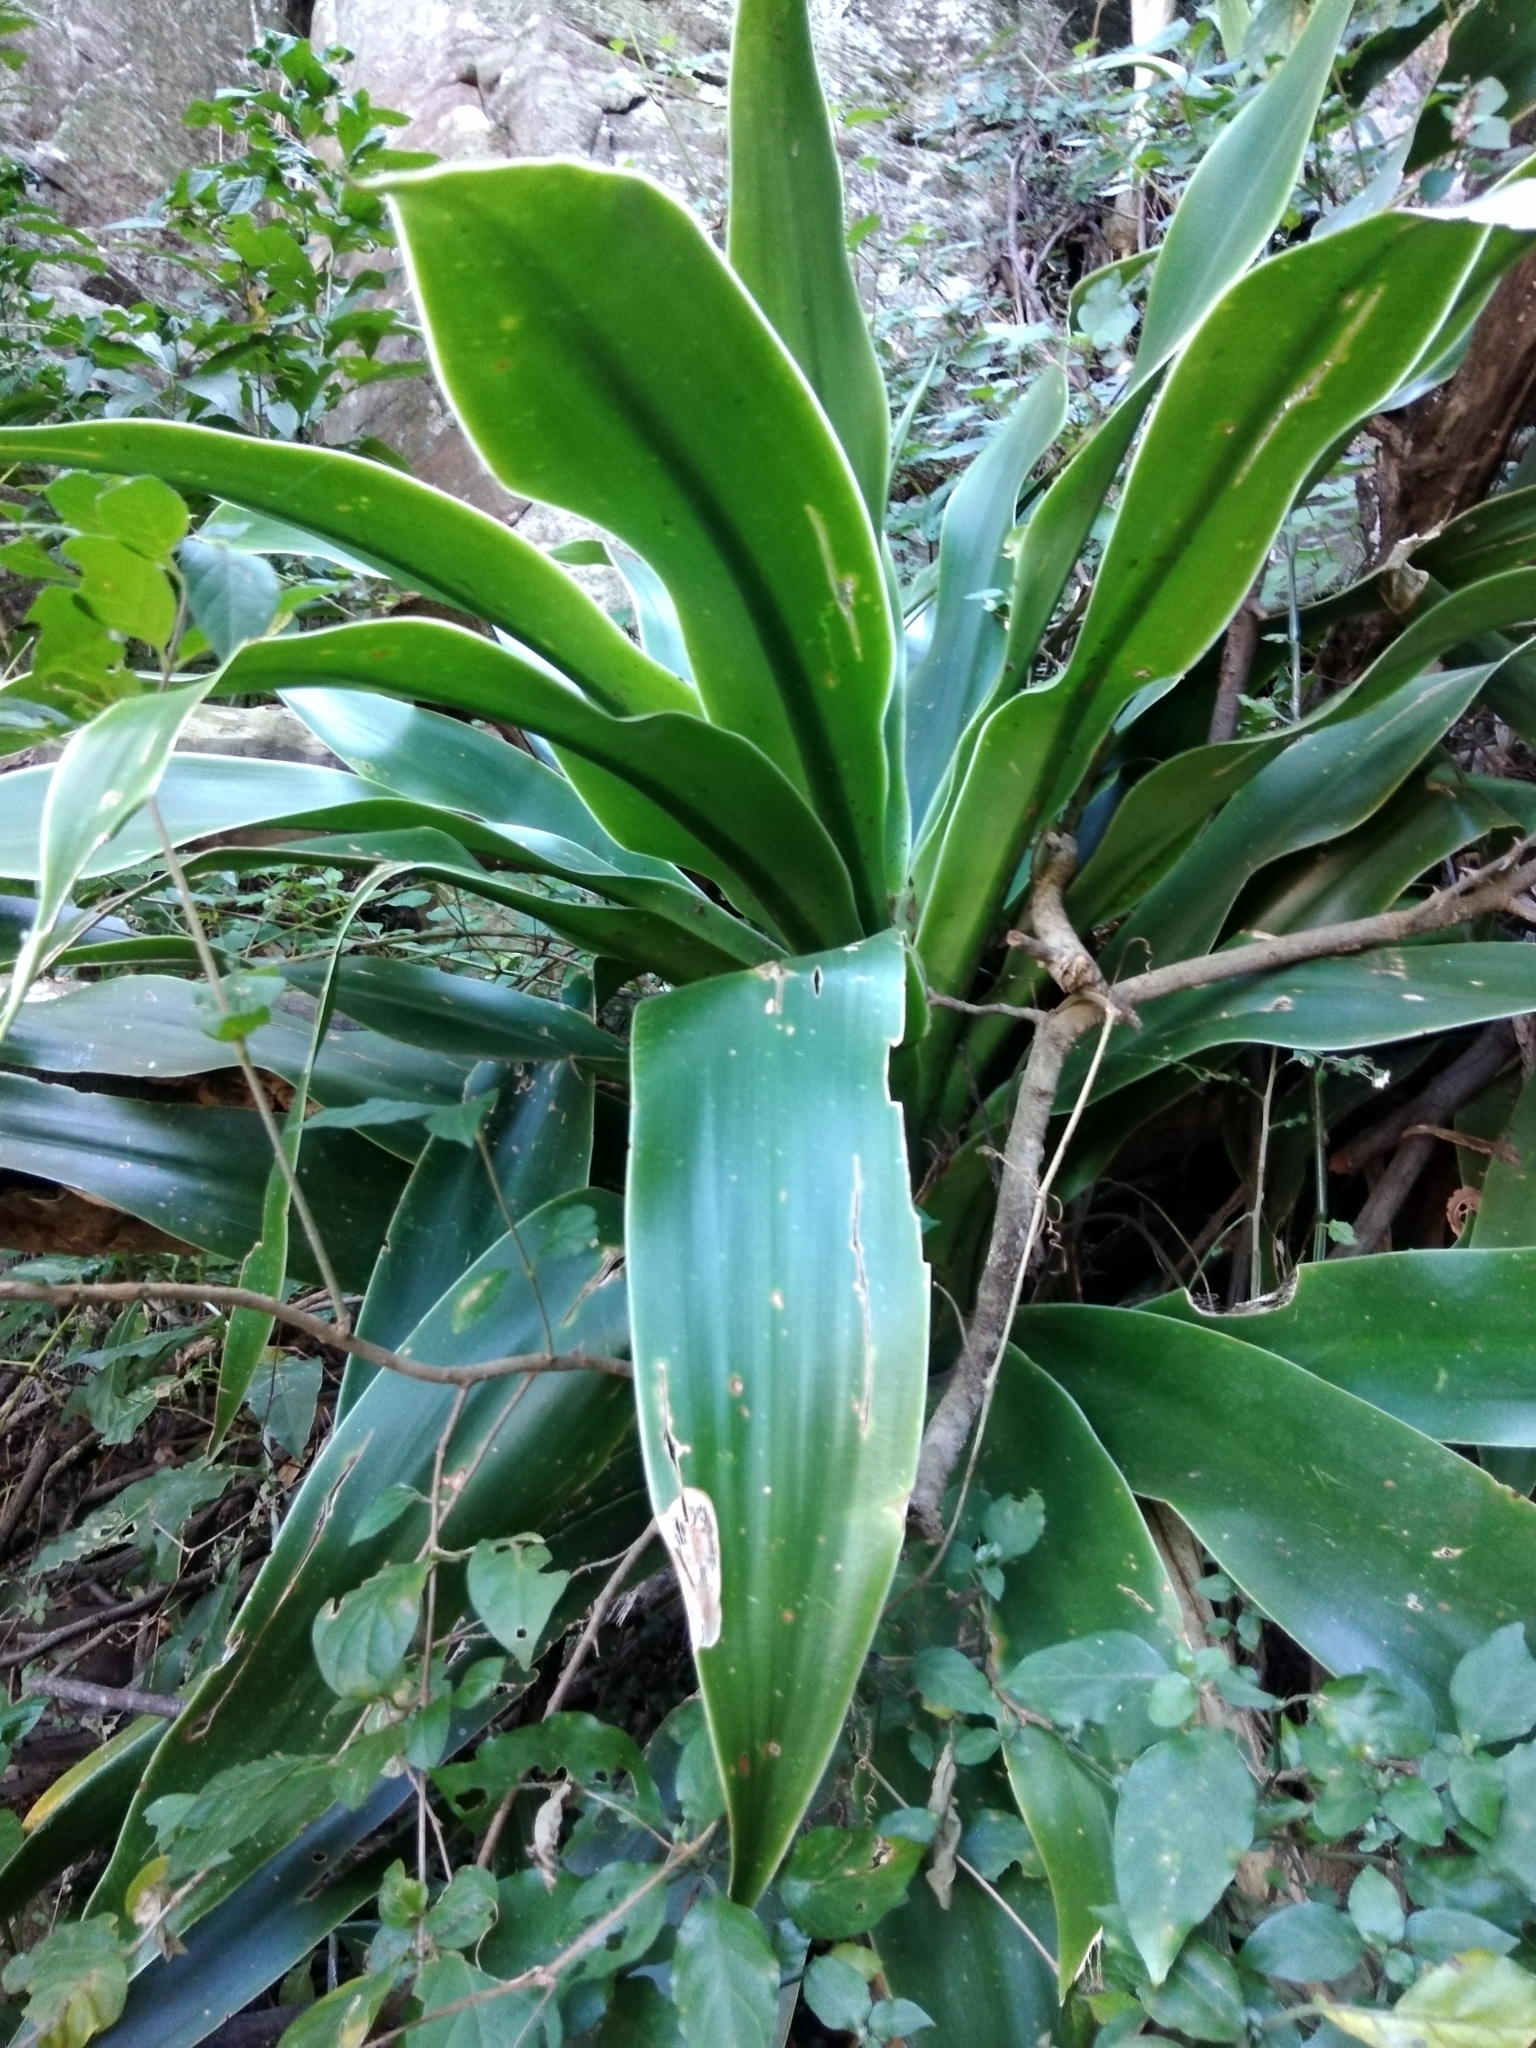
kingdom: Plantae
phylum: Tracheophyta
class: Liliopsida
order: Asparagales
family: Asparagaceae
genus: Dracaena
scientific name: Dracaena aletriformis
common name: Large-leaved dragon tree
